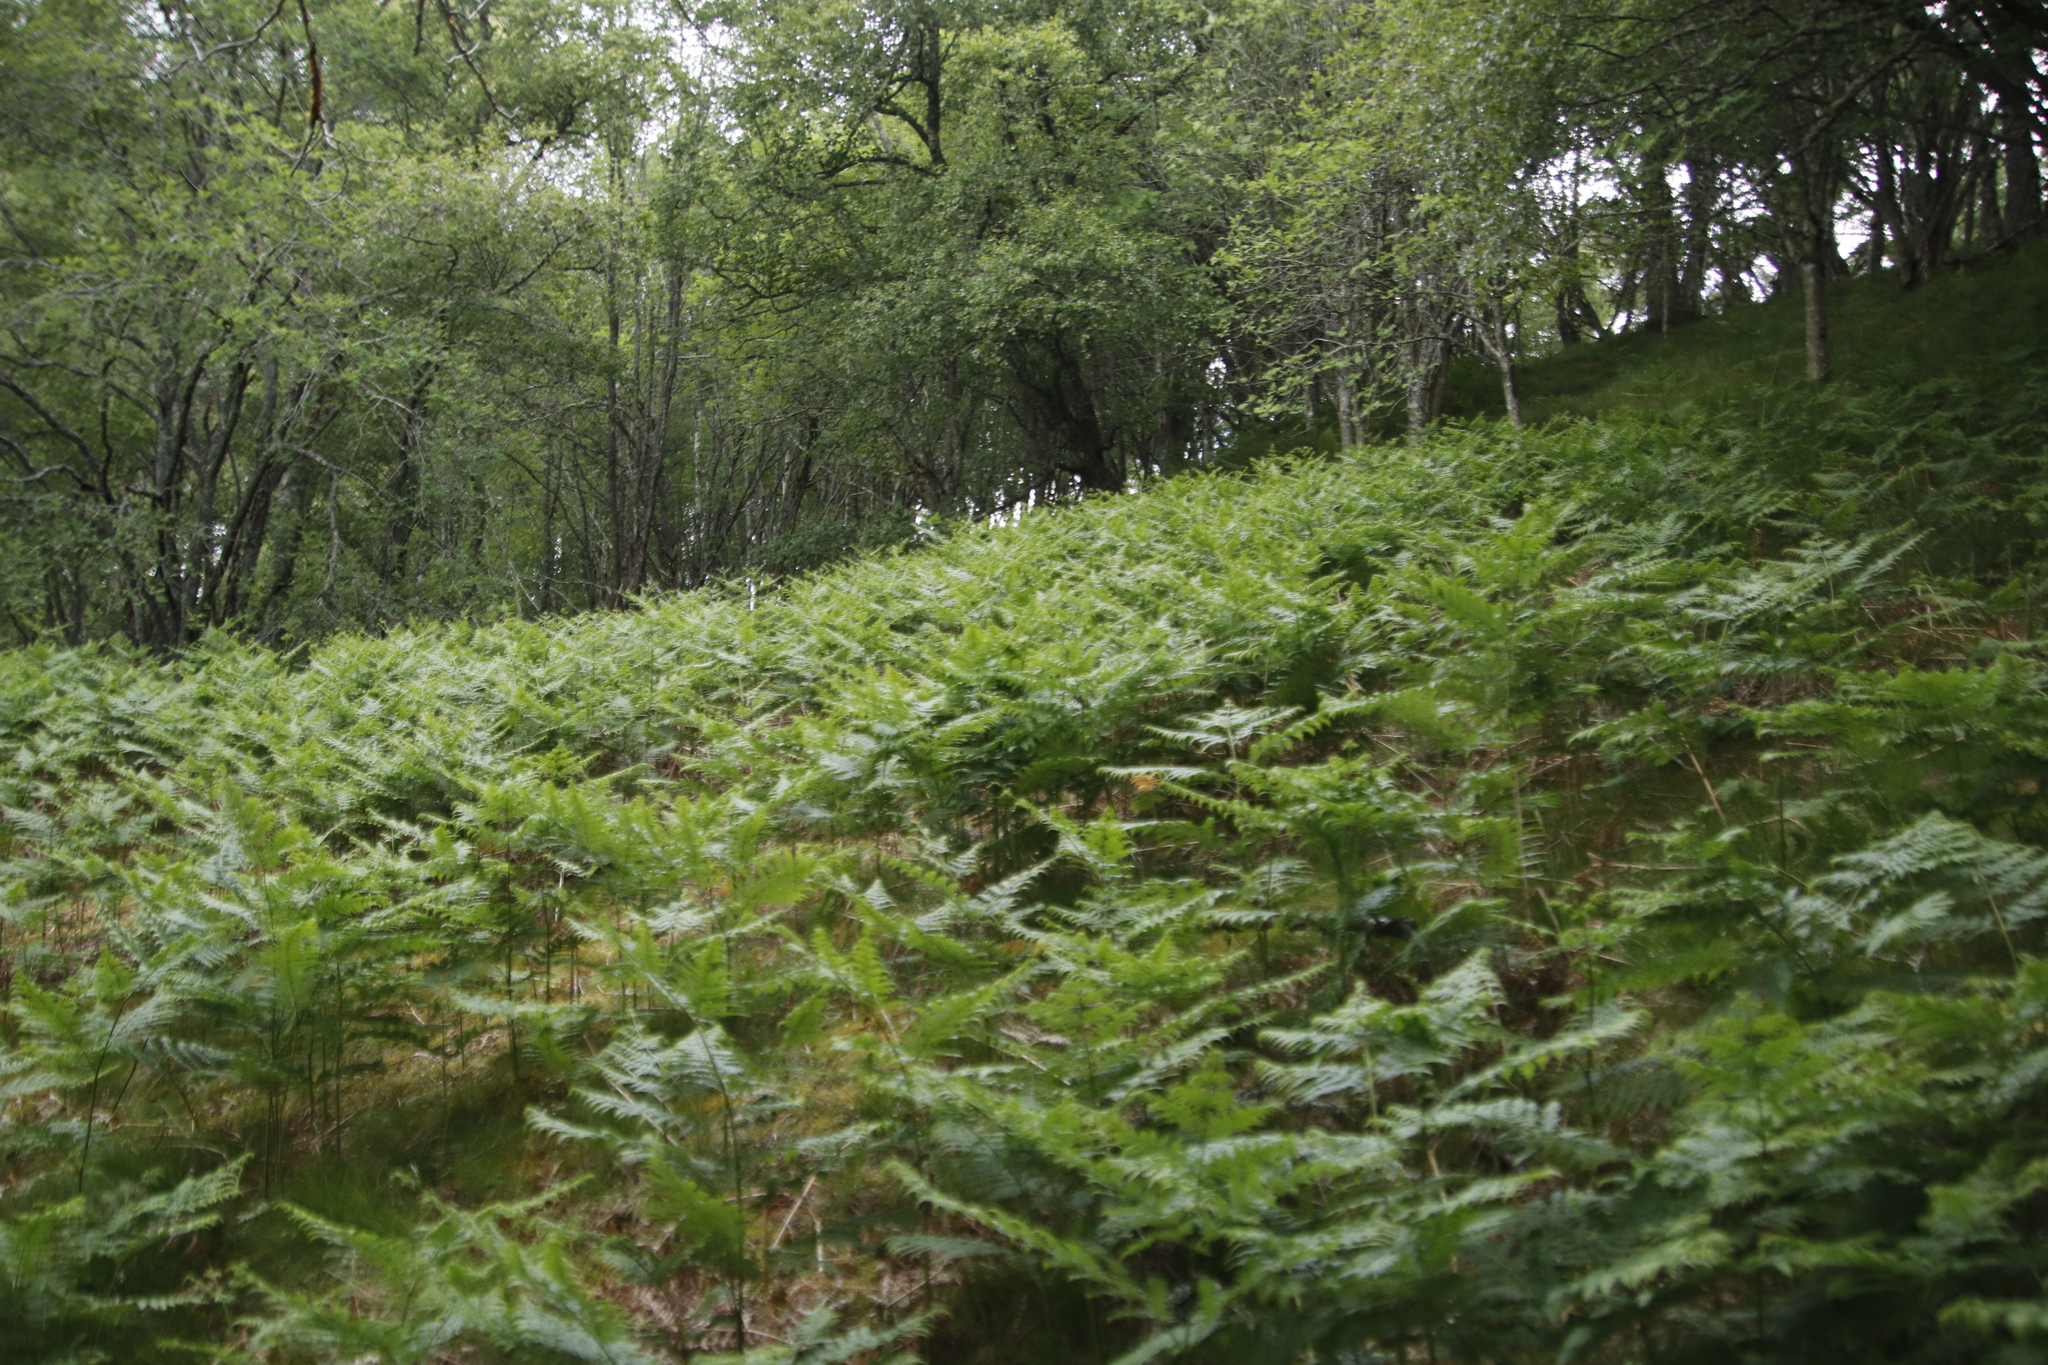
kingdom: Plantae
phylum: Tracheophyta
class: Polypodiopsida
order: Polypodiales
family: Dennstaedtiaceae
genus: Pteridium
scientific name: Pteridium aquilinum
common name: Bracken
